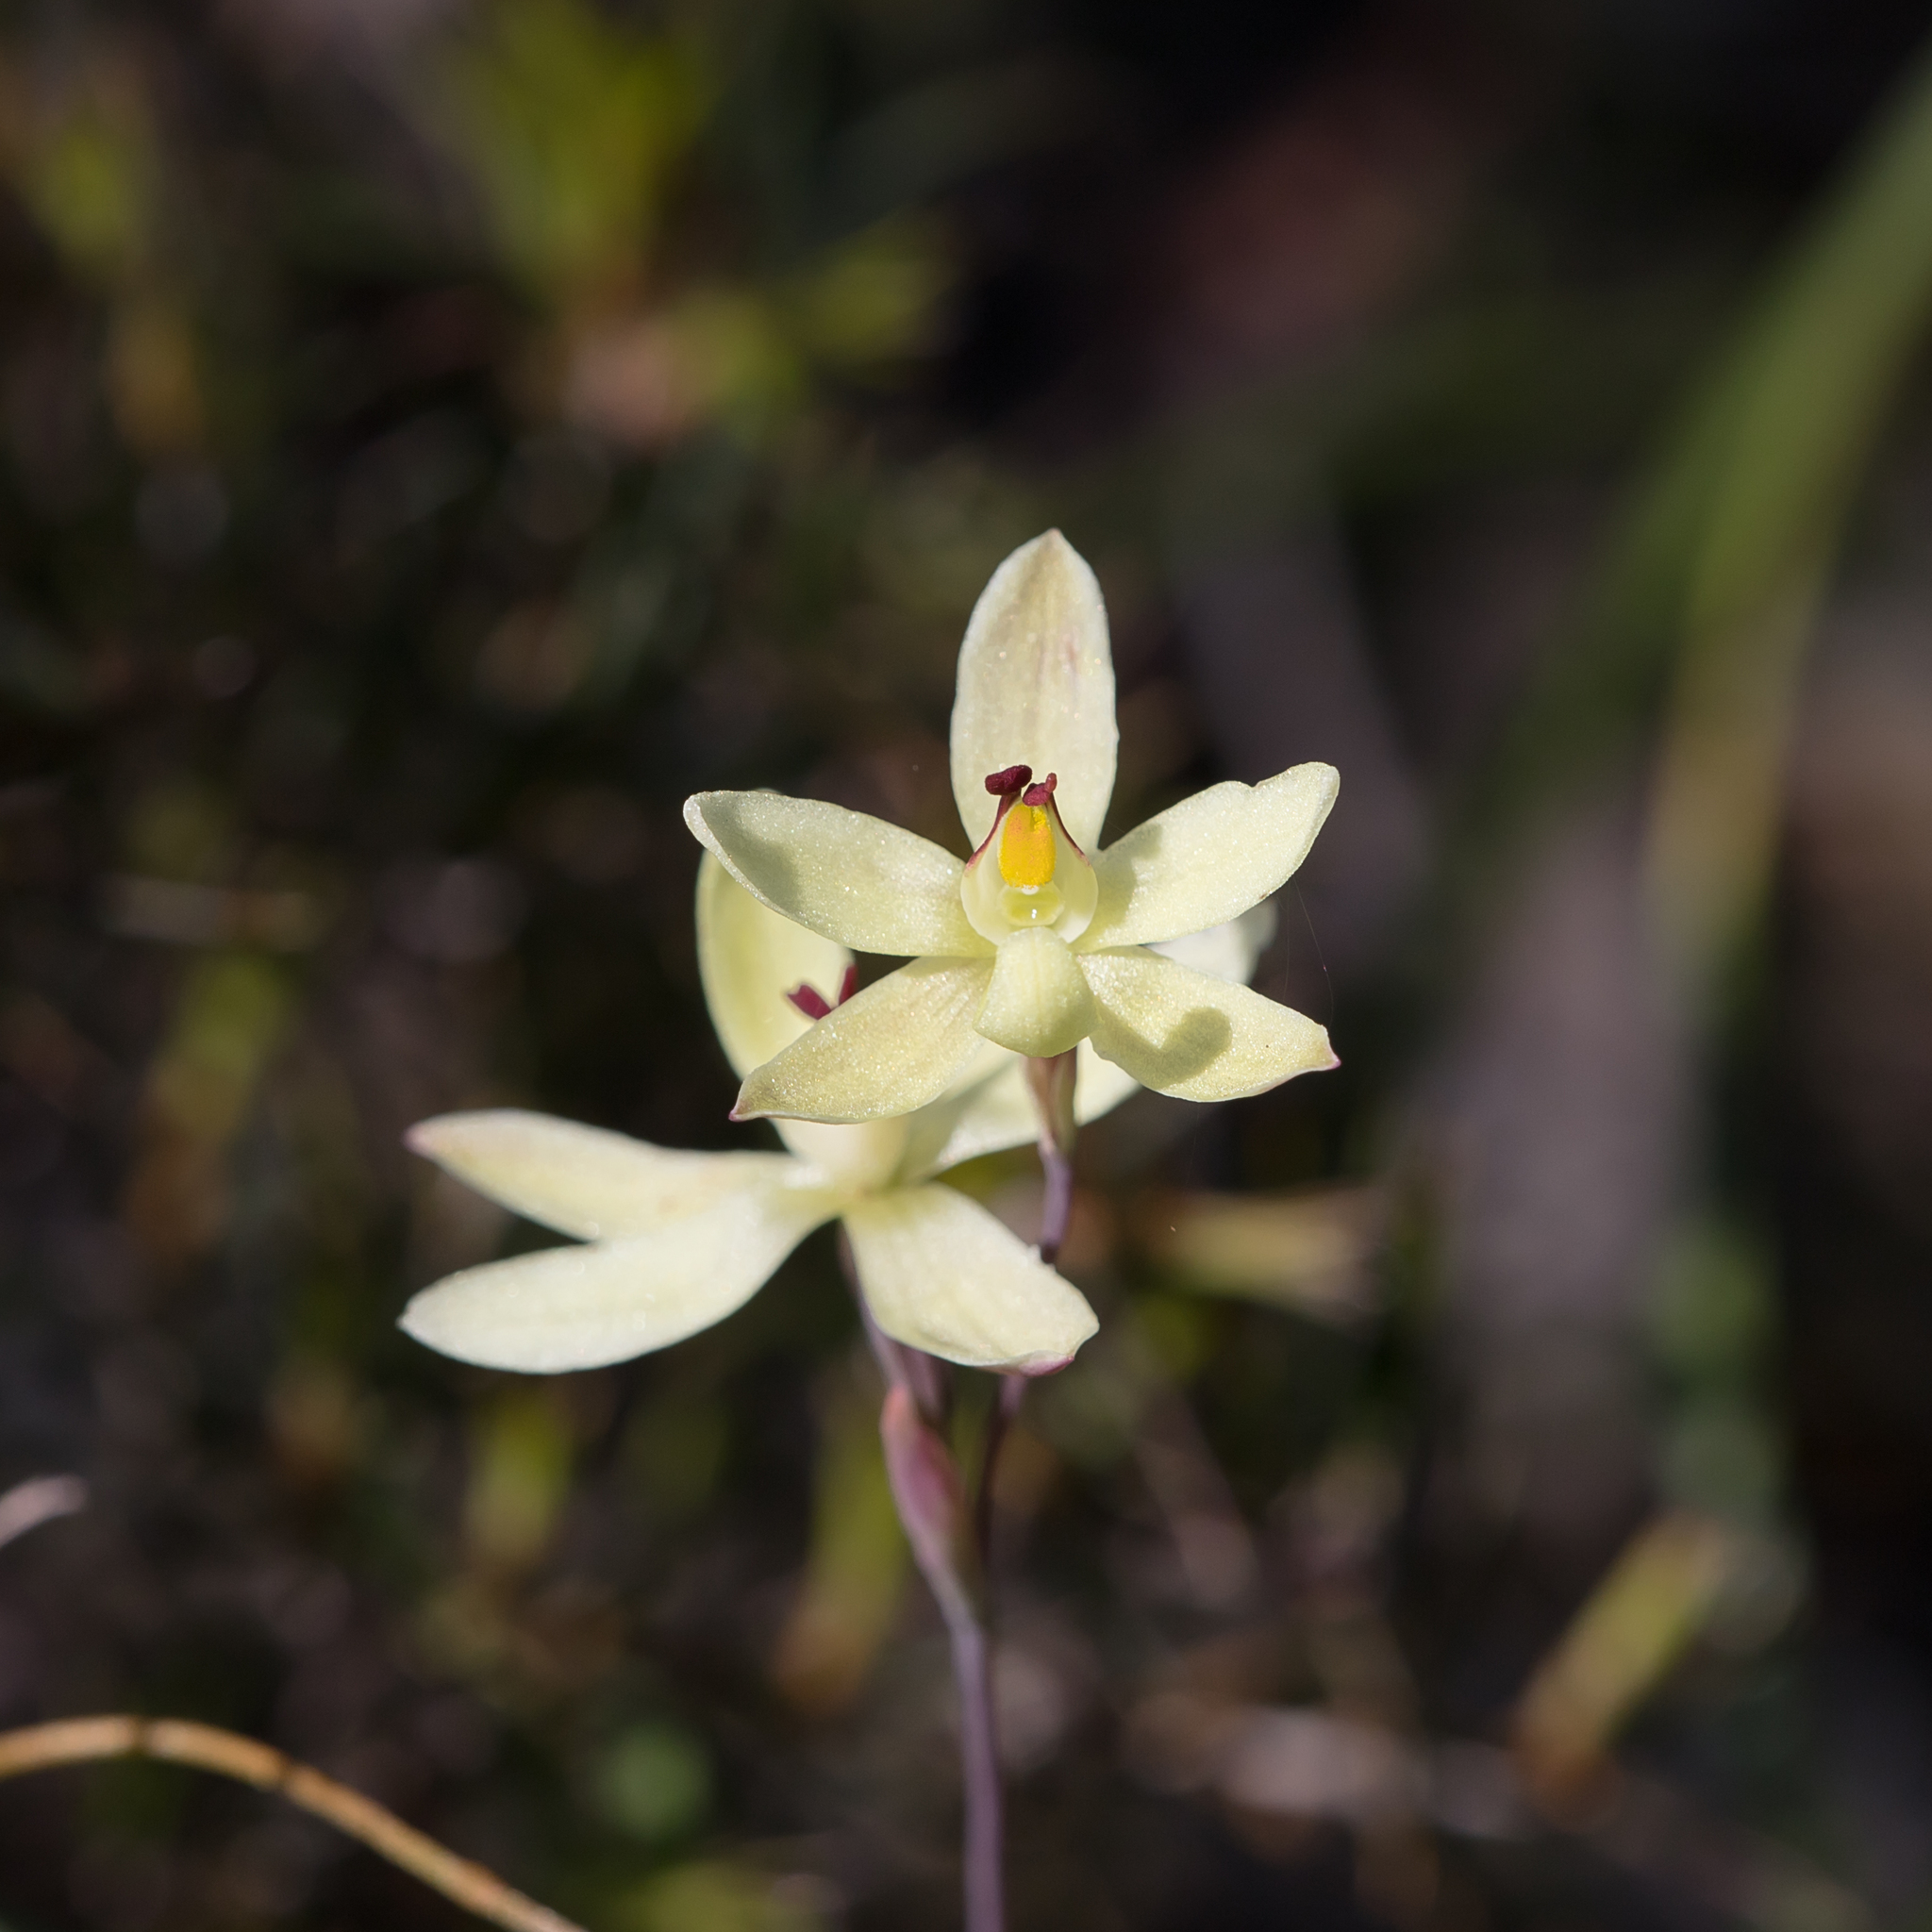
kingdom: Plantae
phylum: Tracheophyta
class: Liliopsida
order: Asparagales
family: Orchidaceae
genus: Thelymitra
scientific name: Thelymitra antennifera
